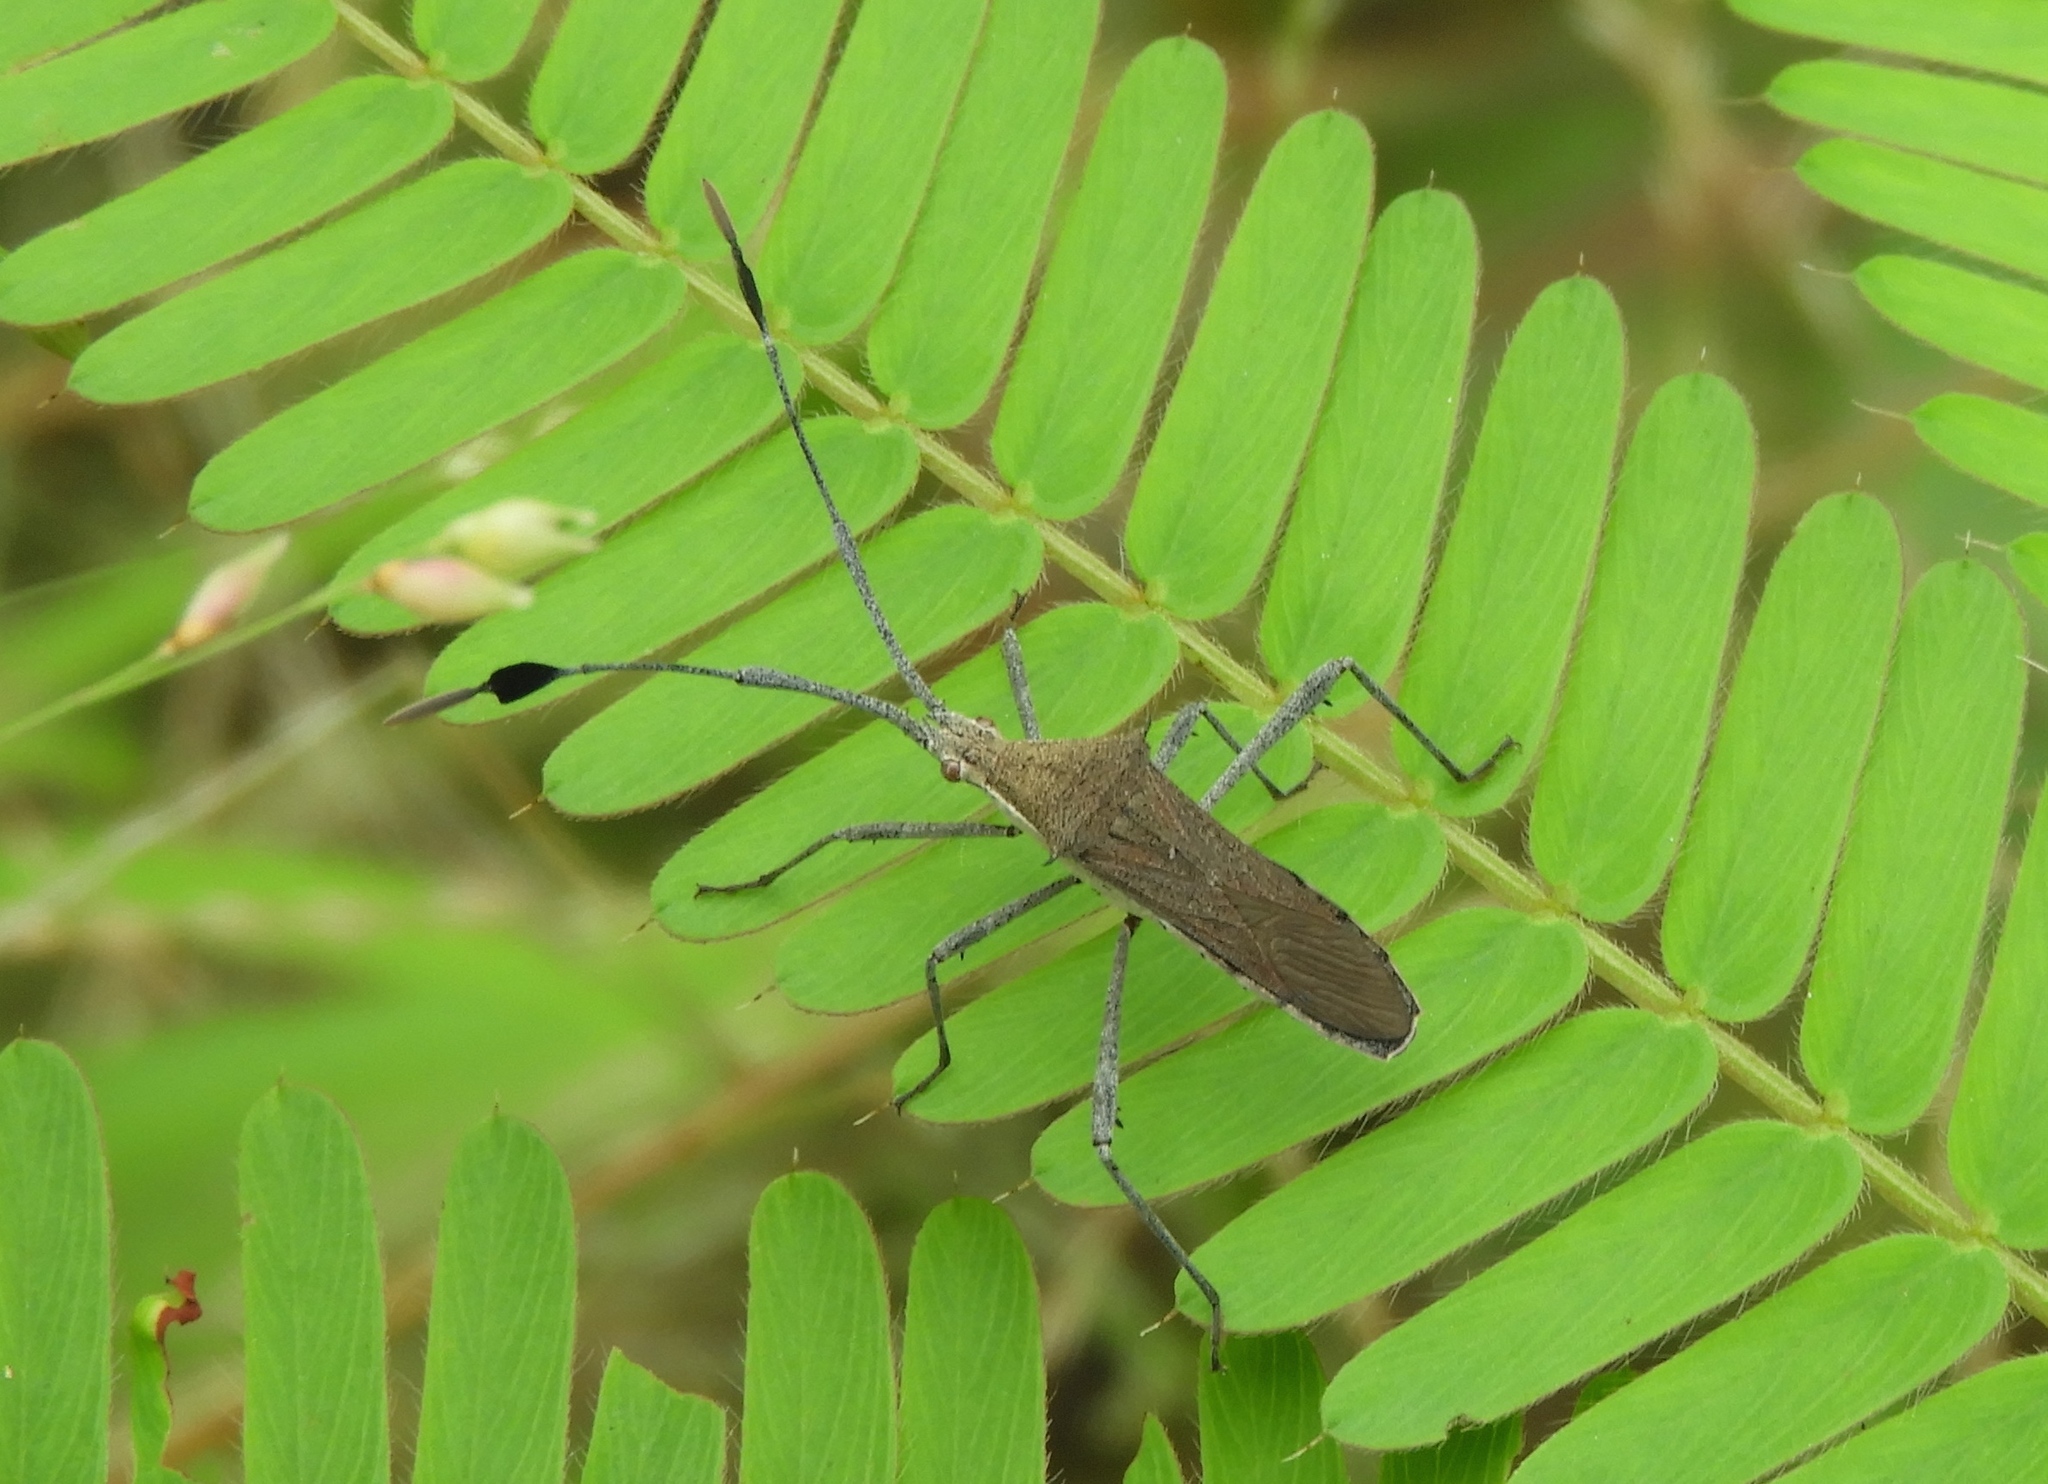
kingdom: Animalia
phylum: Arthropoda
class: Insecta
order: Hemiptera
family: Coreidae
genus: Chariesterus
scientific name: Chariesterus
